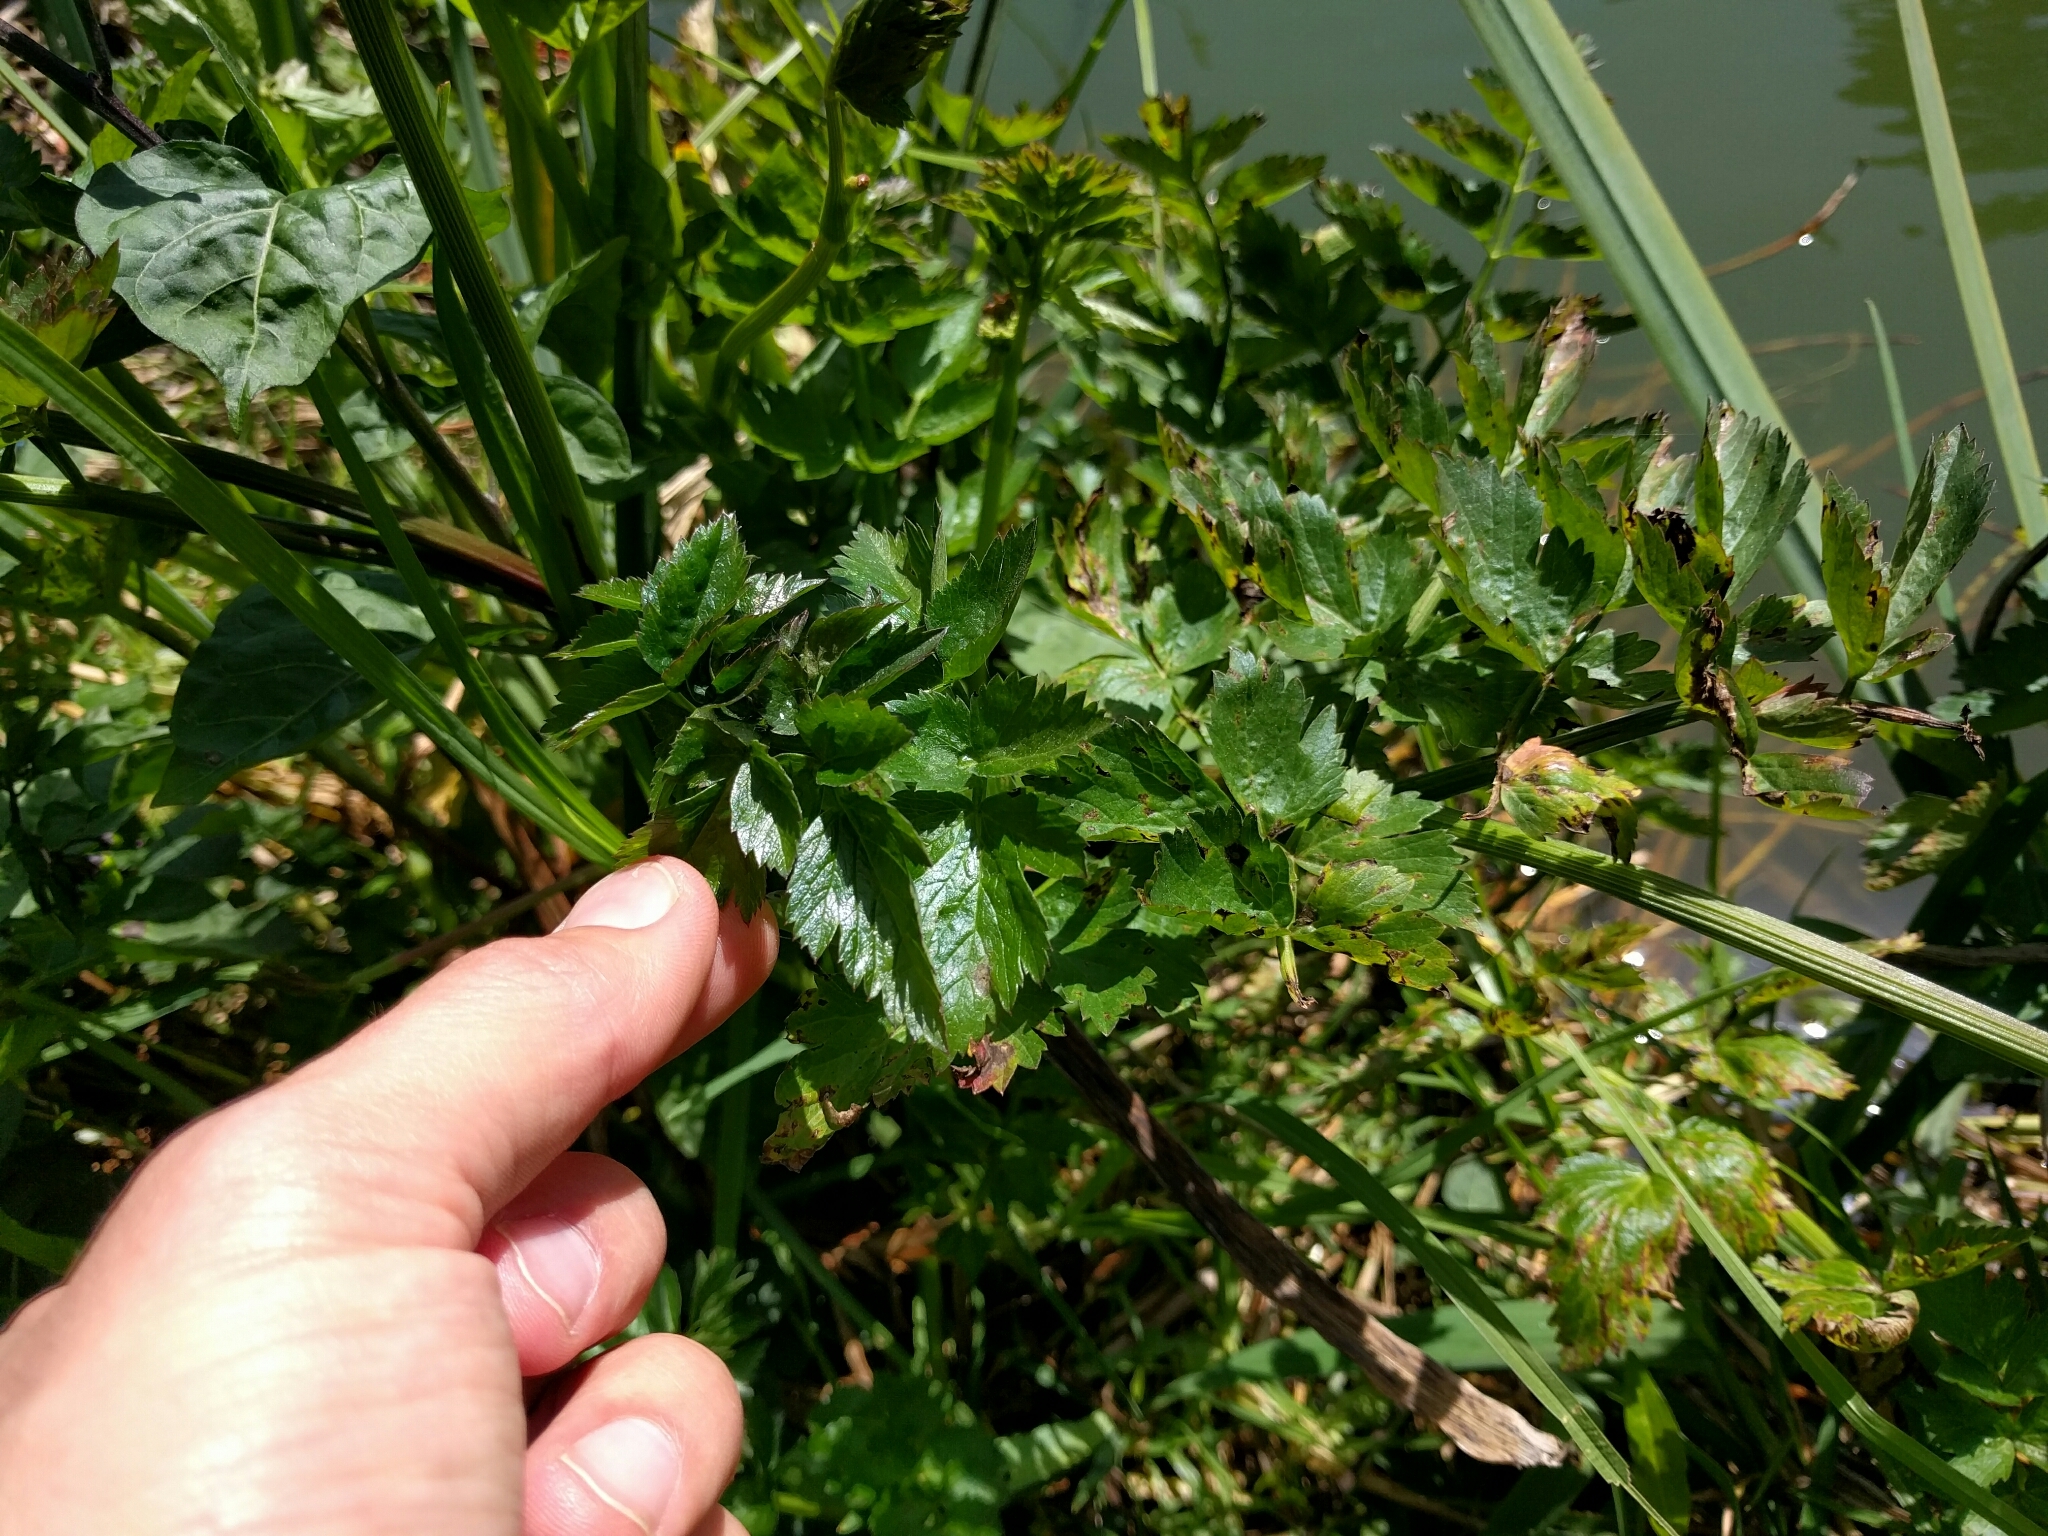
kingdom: Plantae
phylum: Tracheophyta
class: Magnoliopsida
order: Apiales
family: Apiaceae
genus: Oenanthe
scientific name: Oenanthe sarmentosa
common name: American water-parsley
